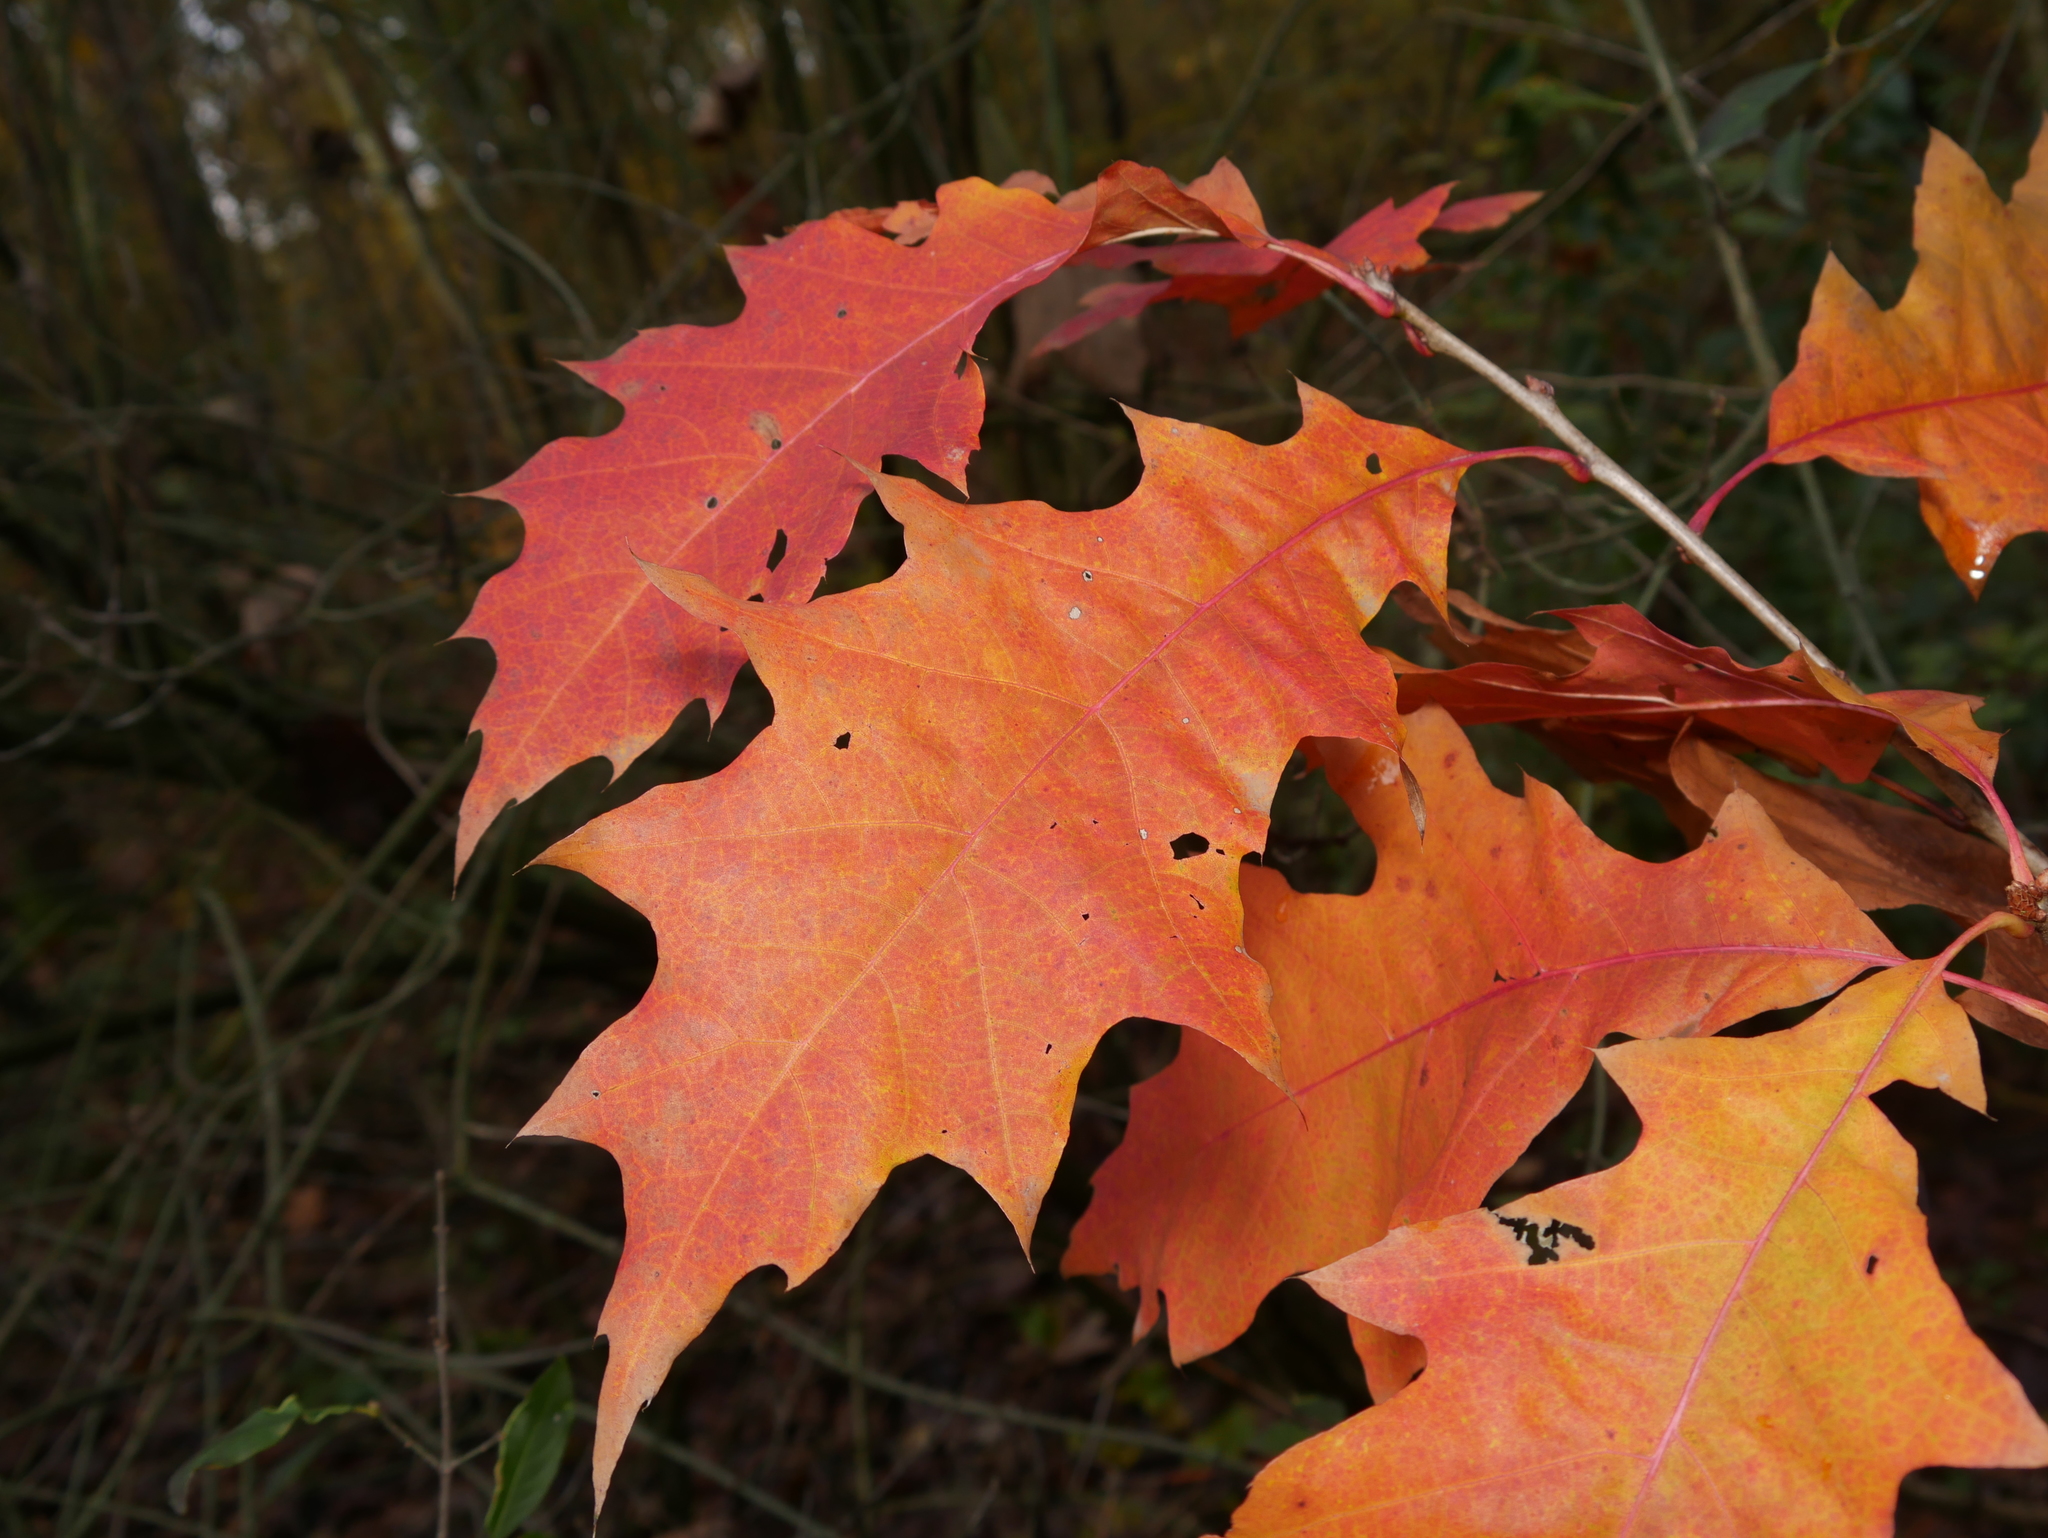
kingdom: Plantae
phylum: Tracheophyta
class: Magnoliopsida
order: Fagales
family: Fagaceae
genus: Quercus
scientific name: Quercus rubra
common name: Red oak
